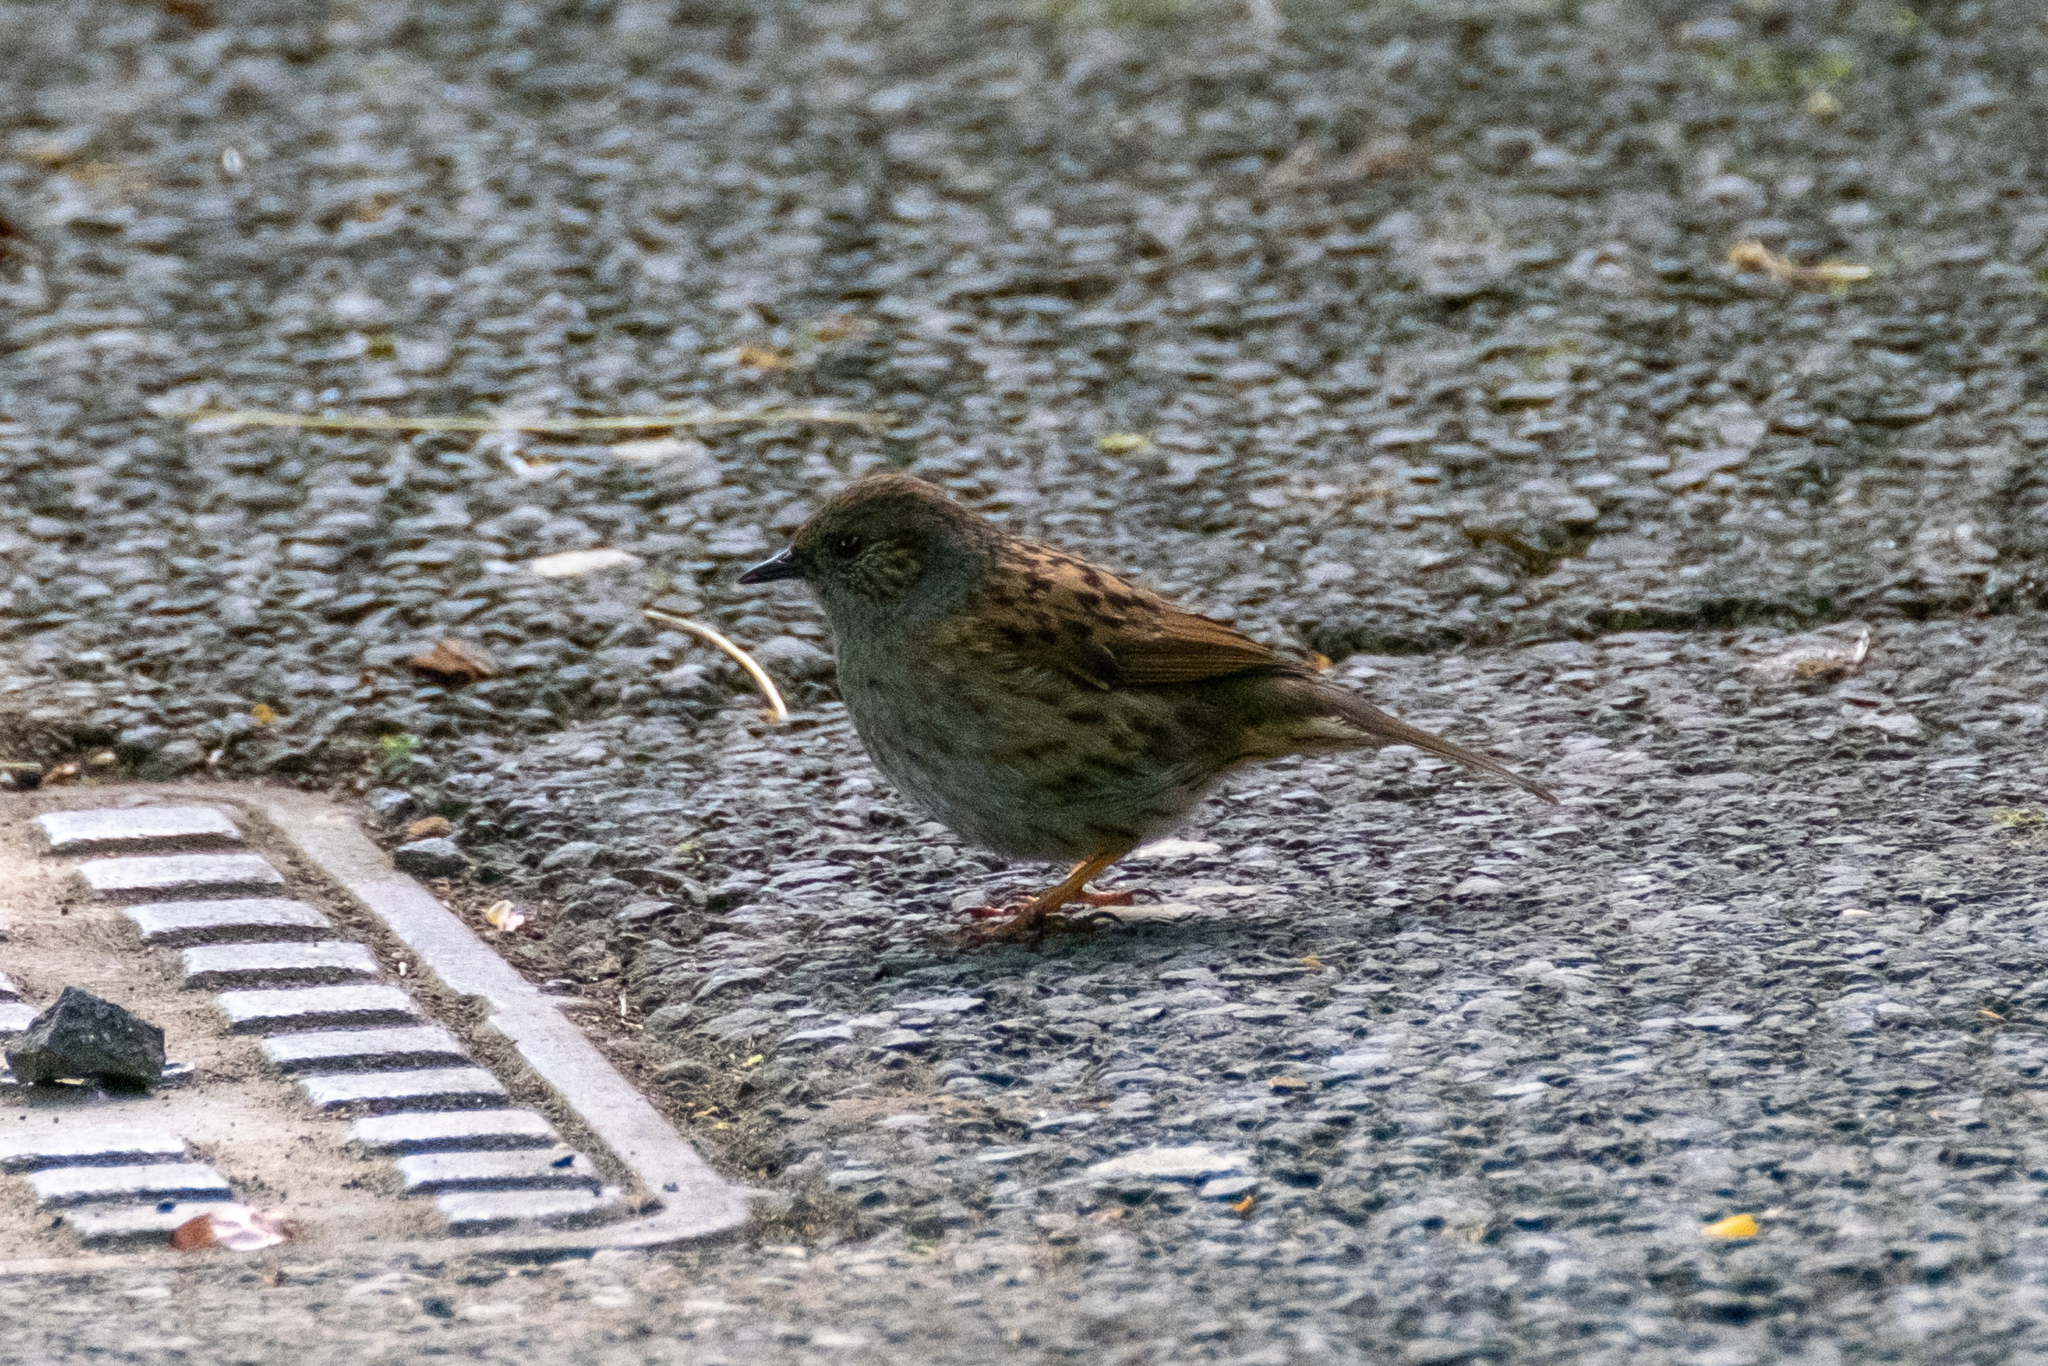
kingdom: Animalia
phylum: Chordata
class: Aves
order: Passeriformes
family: Prunellidae
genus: Prunella
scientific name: Prunella modularis
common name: Dunnock
